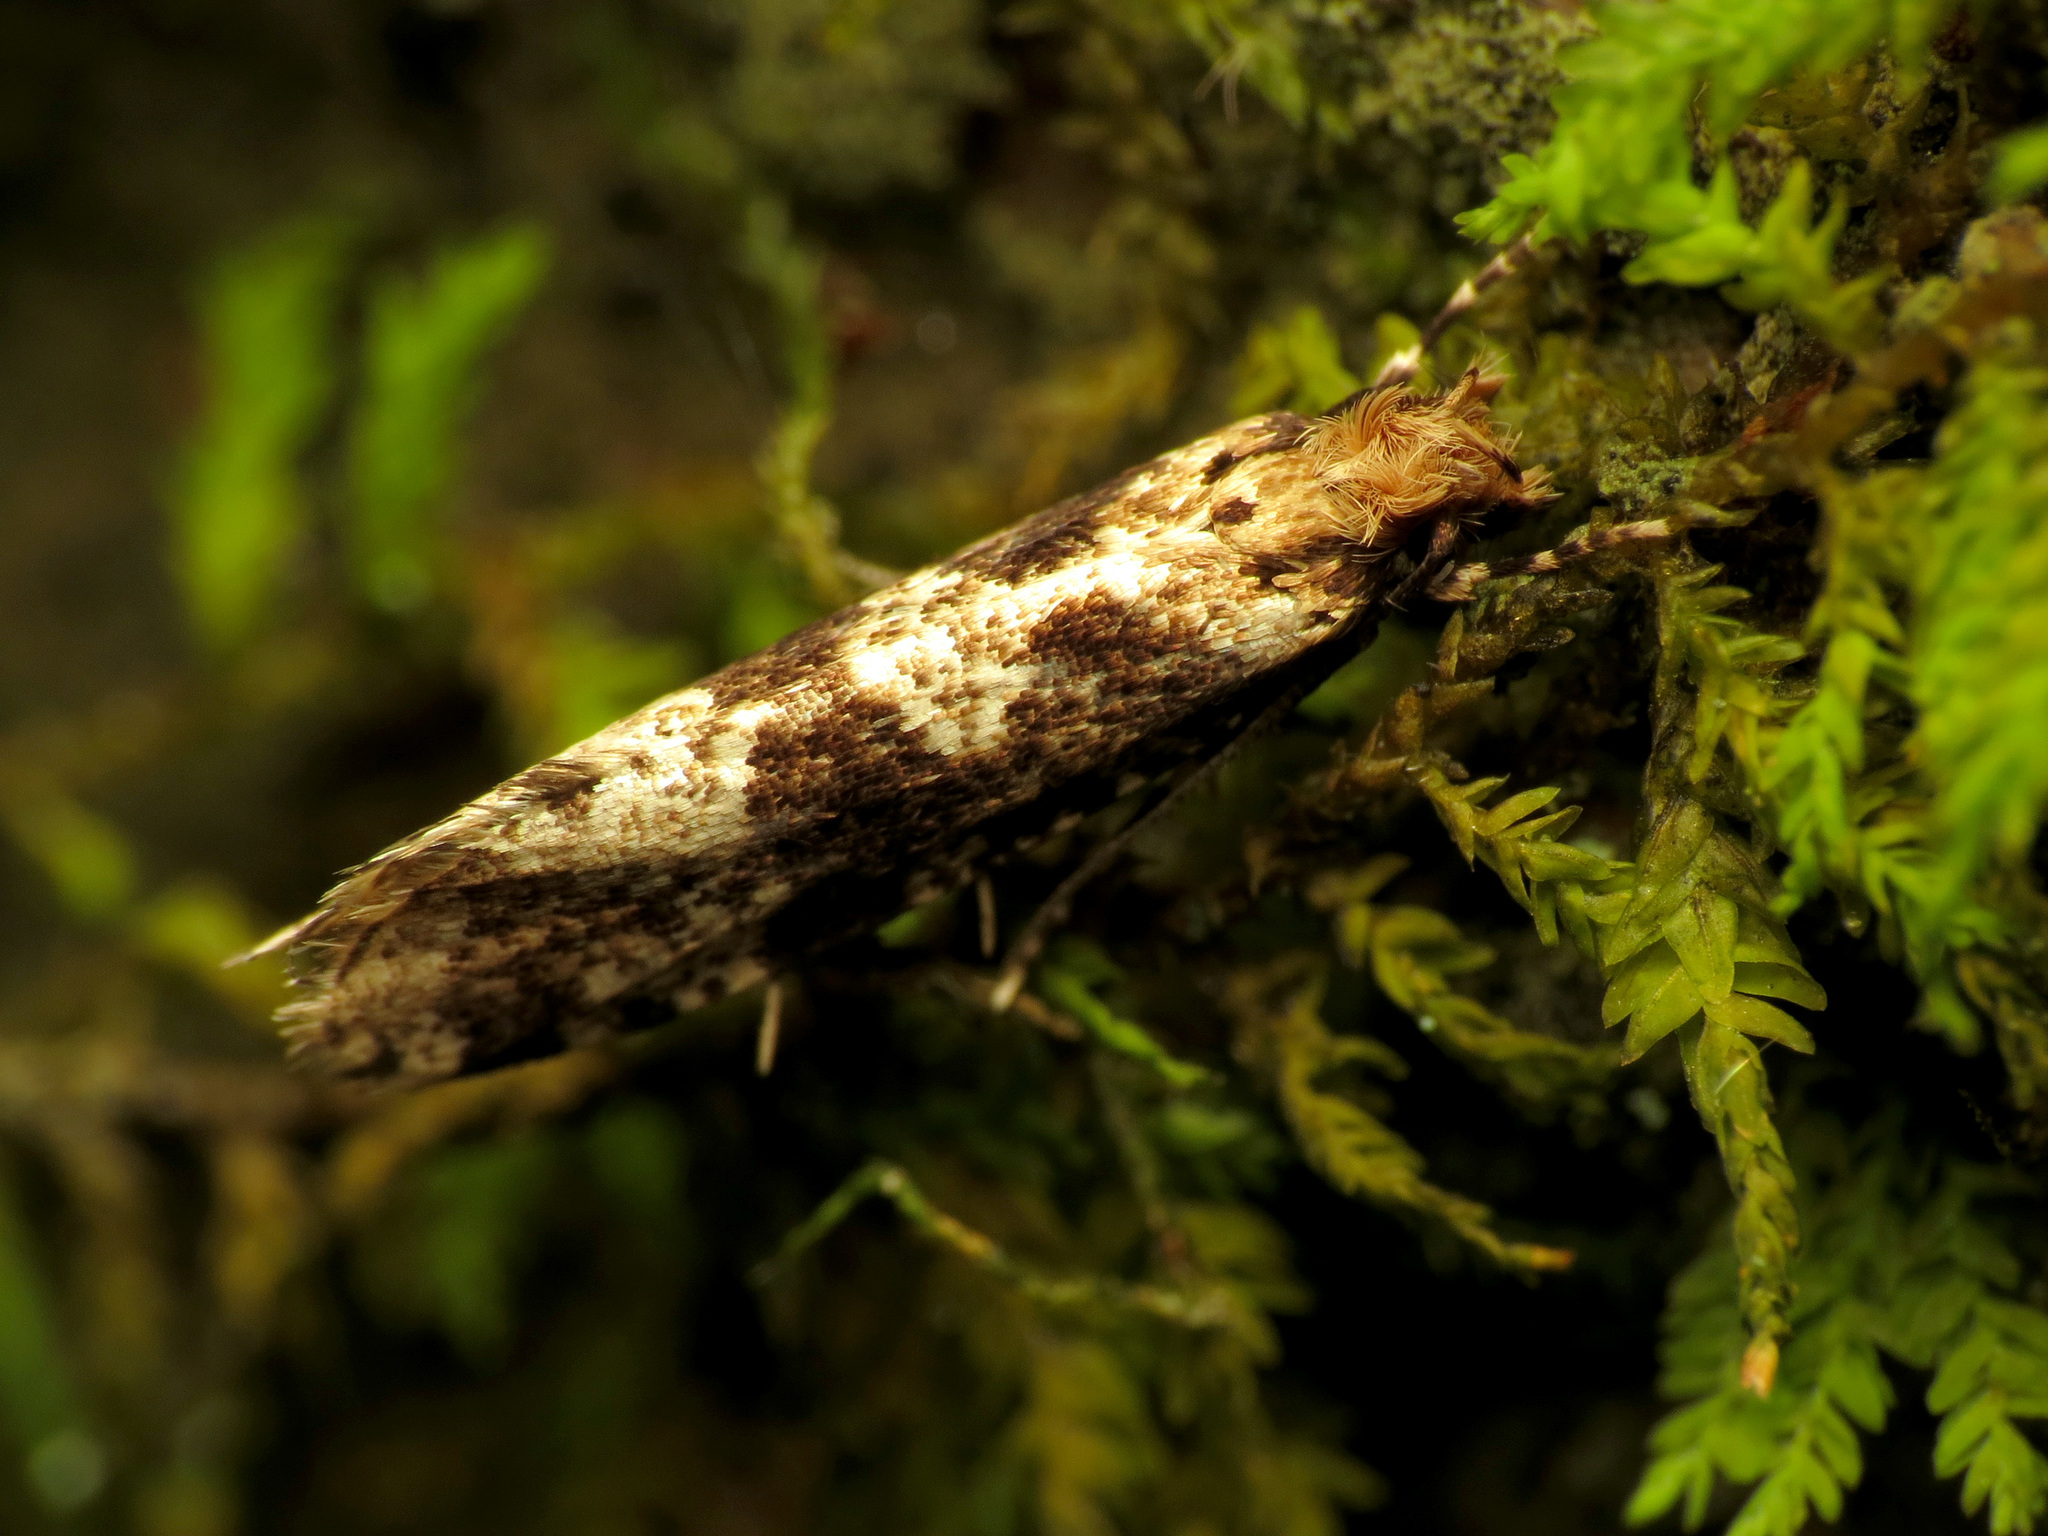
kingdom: Animalia
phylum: Arthropoda
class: Insecta
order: Lepidoptera
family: Tineidae
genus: Scardiella
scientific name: Scardiella approximatella
